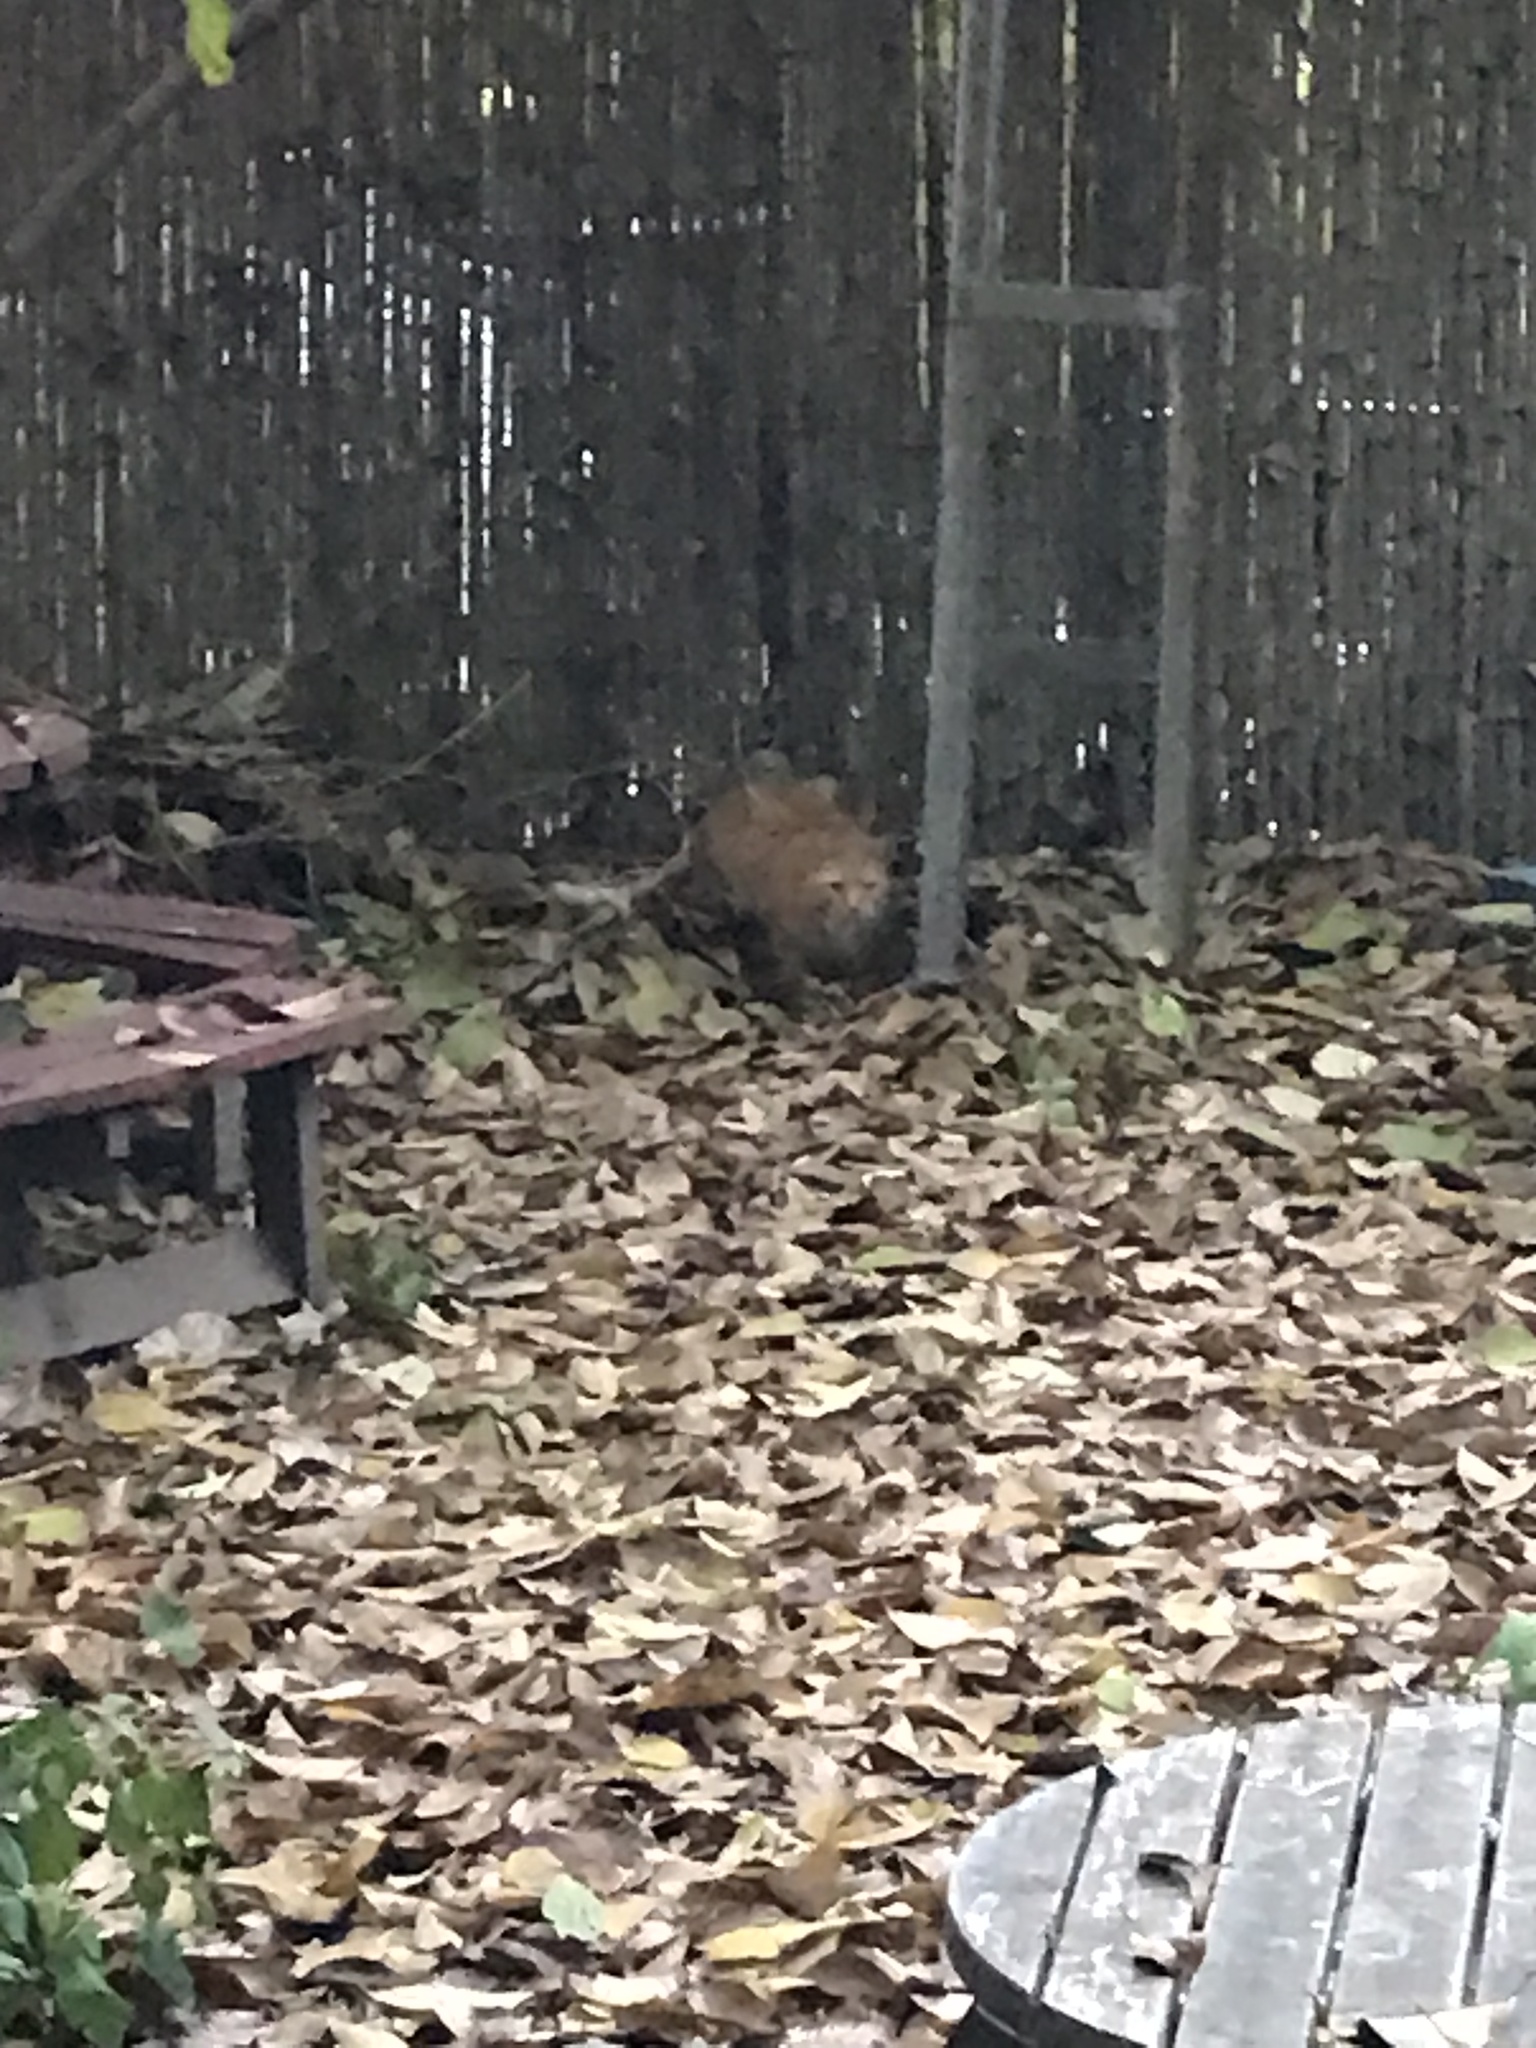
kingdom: Animalia
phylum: Chordata
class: Mammalia
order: Carnivora
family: Felidae
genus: Felis
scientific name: Felis catus
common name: Domestic cat
